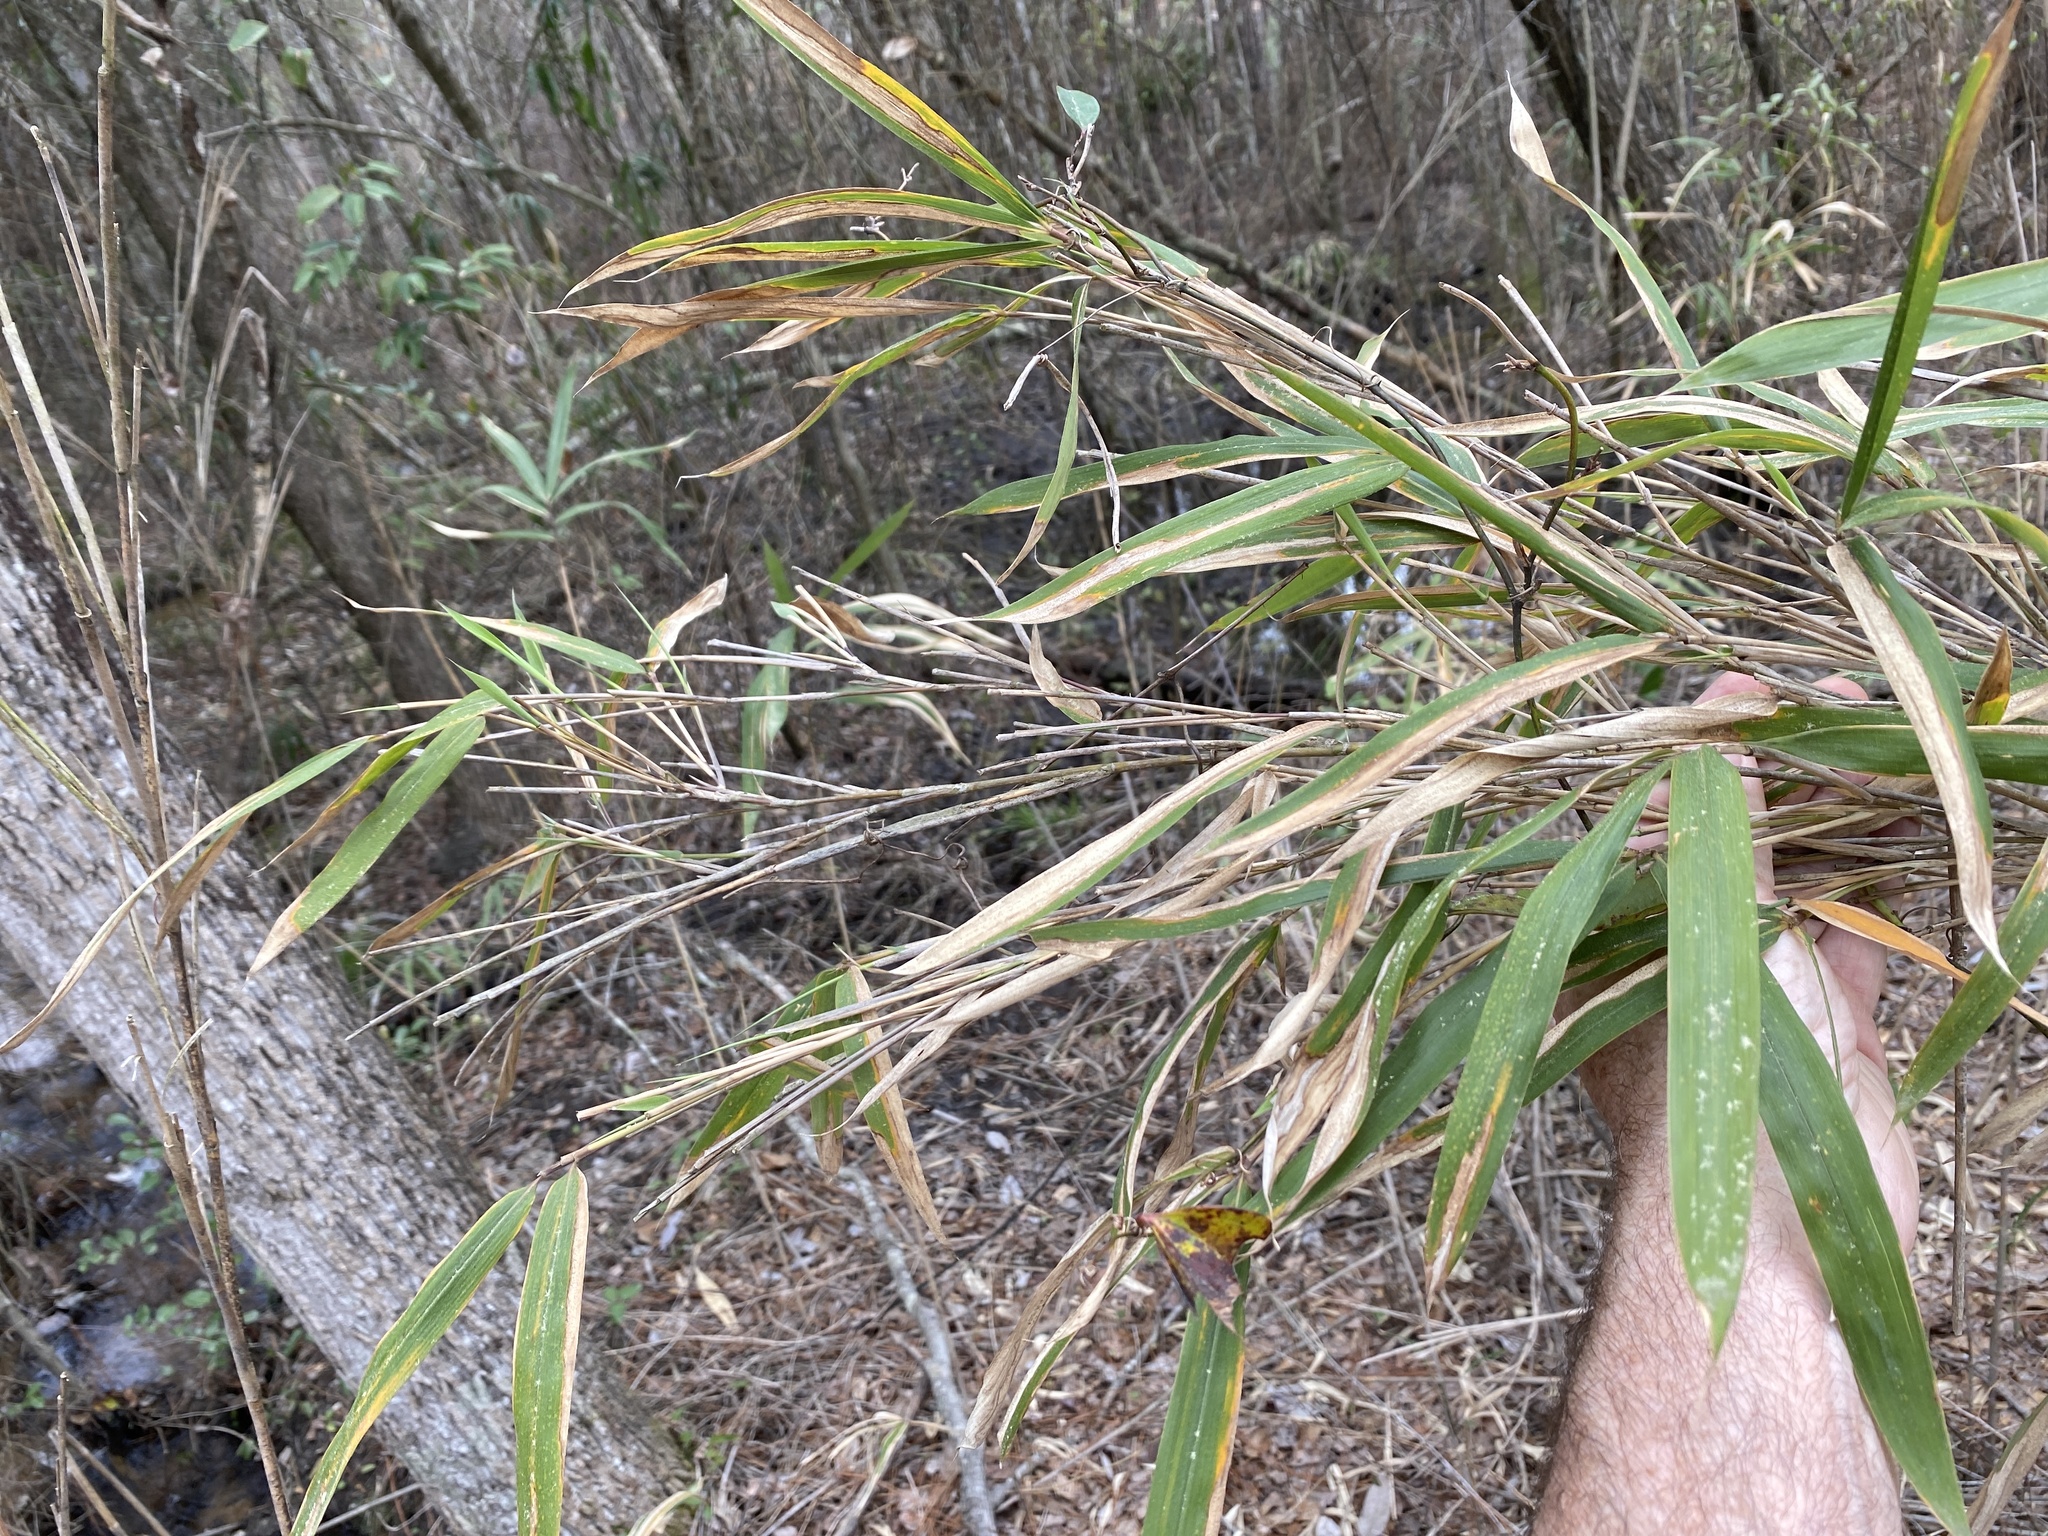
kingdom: Plantae
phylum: Tracheophyta
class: Liliopsida
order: Poales
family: Poaceae
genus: Arundinaria
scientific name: Arundinaria tecta
